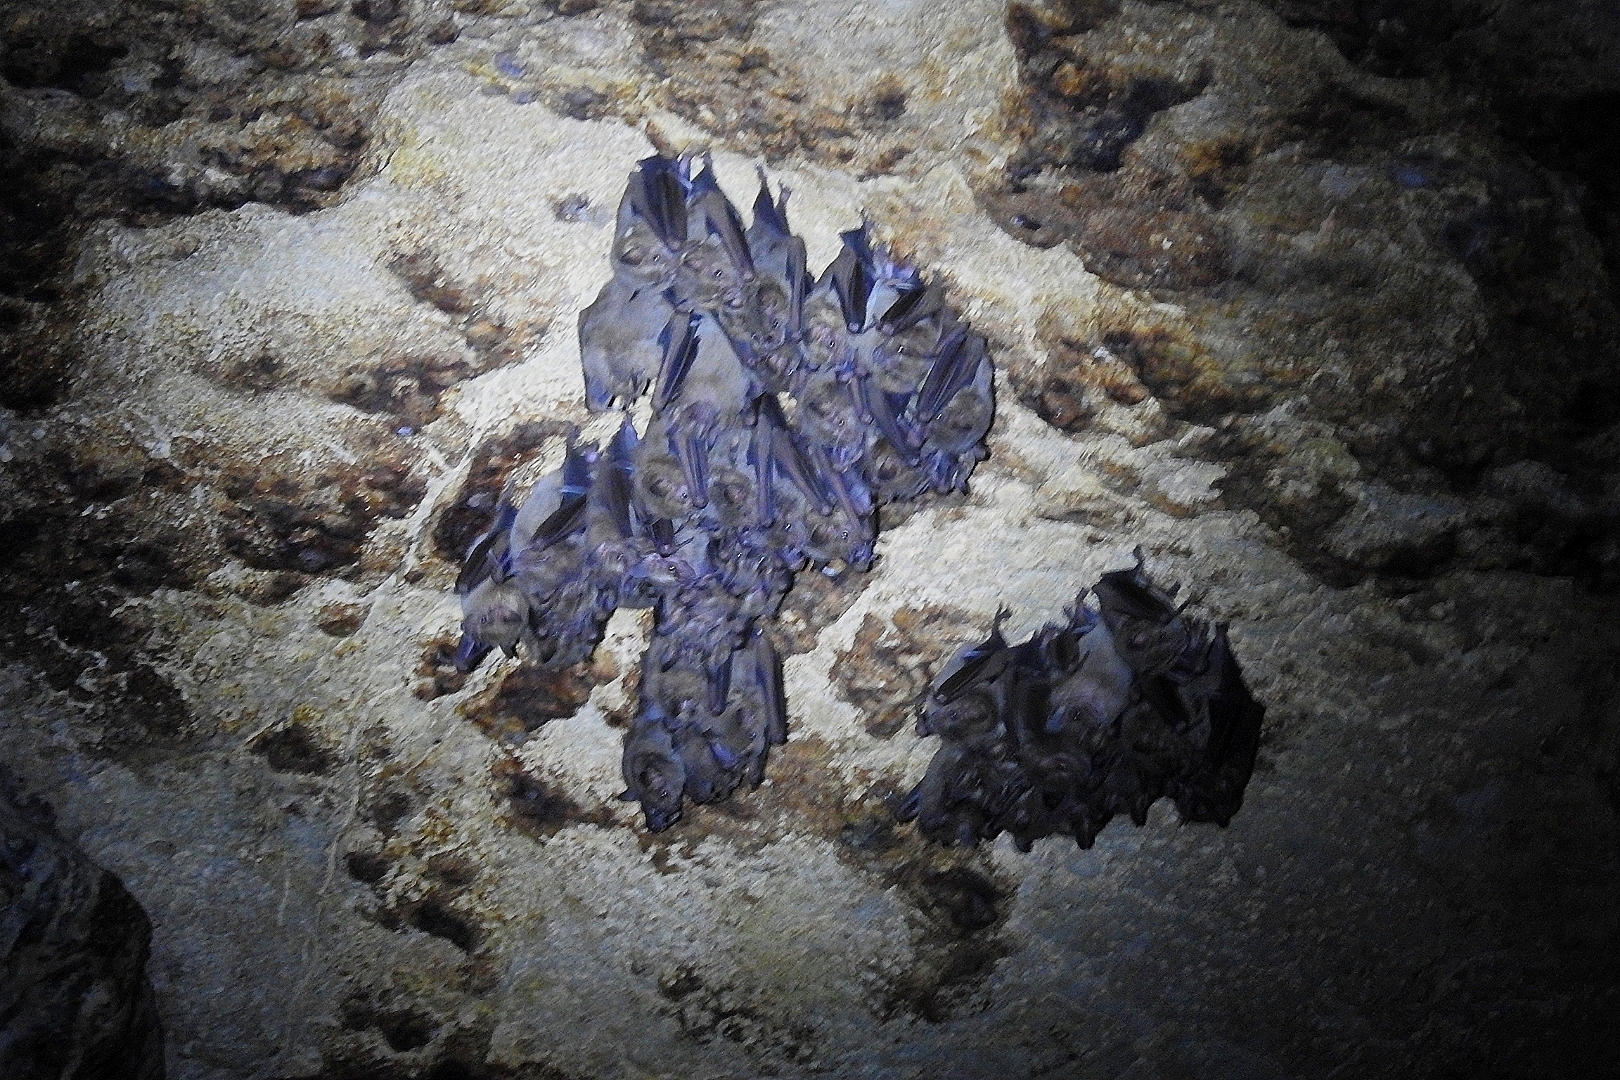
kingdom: Animalia
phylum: Chordata
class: Mammalia
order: Chiroptera
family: Phyllostomidae
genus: Artibeus
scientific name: Artibeus jamaicensis
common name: Jamaican fruit-eating bat
